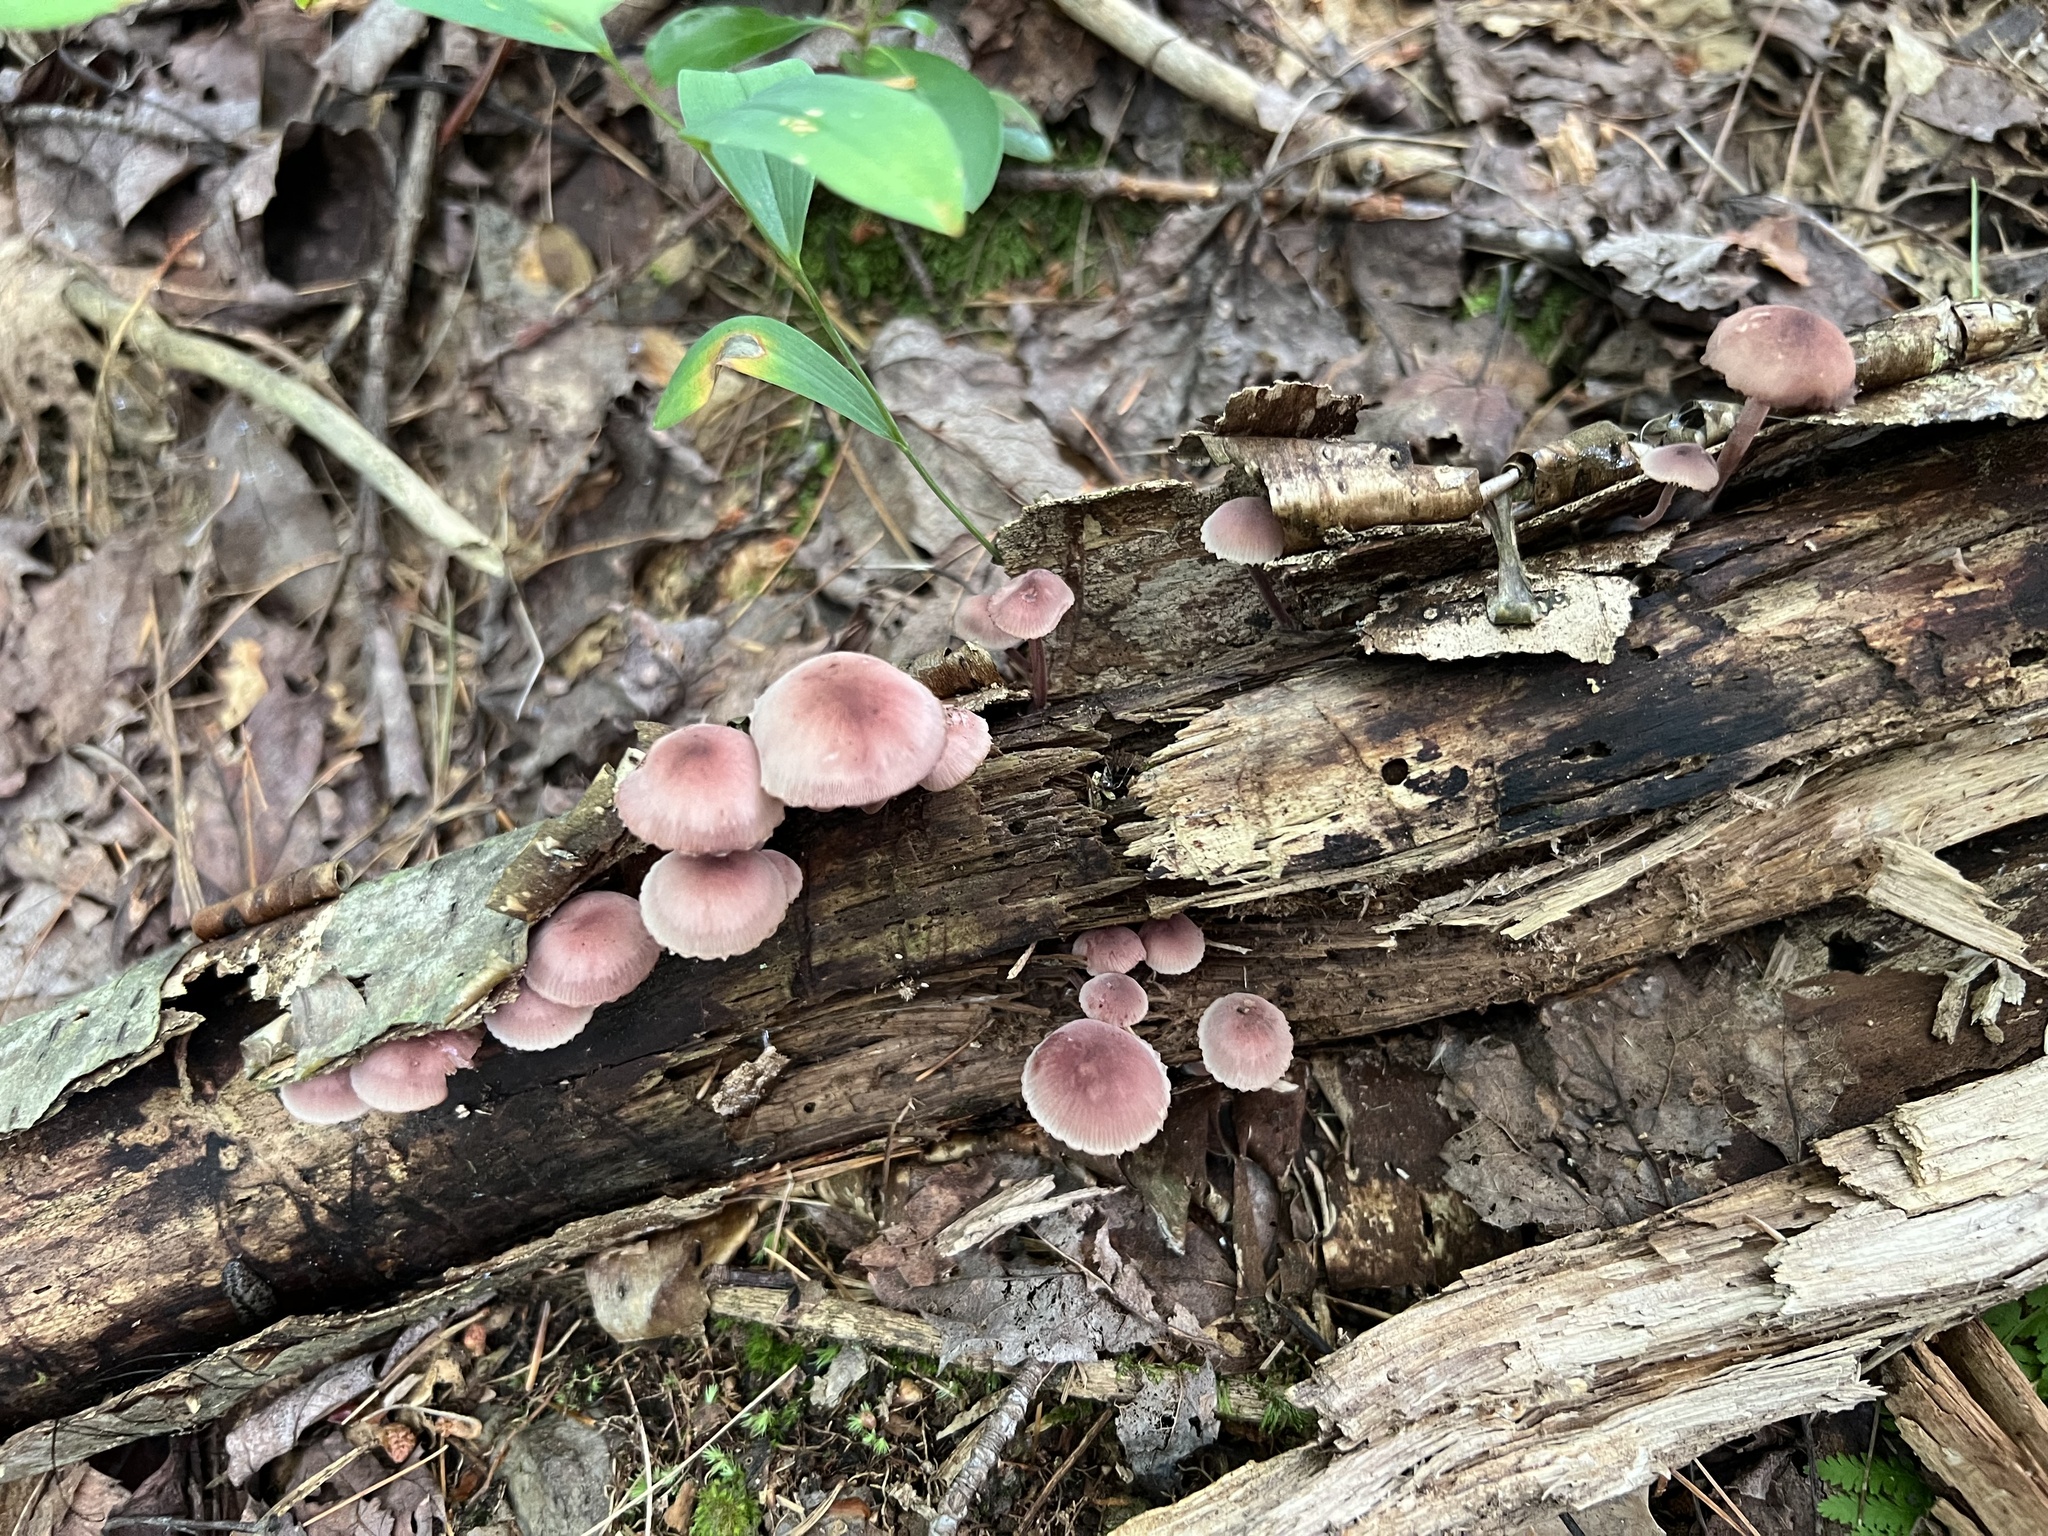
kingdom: Fungi
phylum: Basidiomycota
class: Agaricomycetes
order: Agaricales
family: Mycenaceae
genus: Mycena
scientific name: Mycena haematopus
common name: Burgundydrop bonnet
